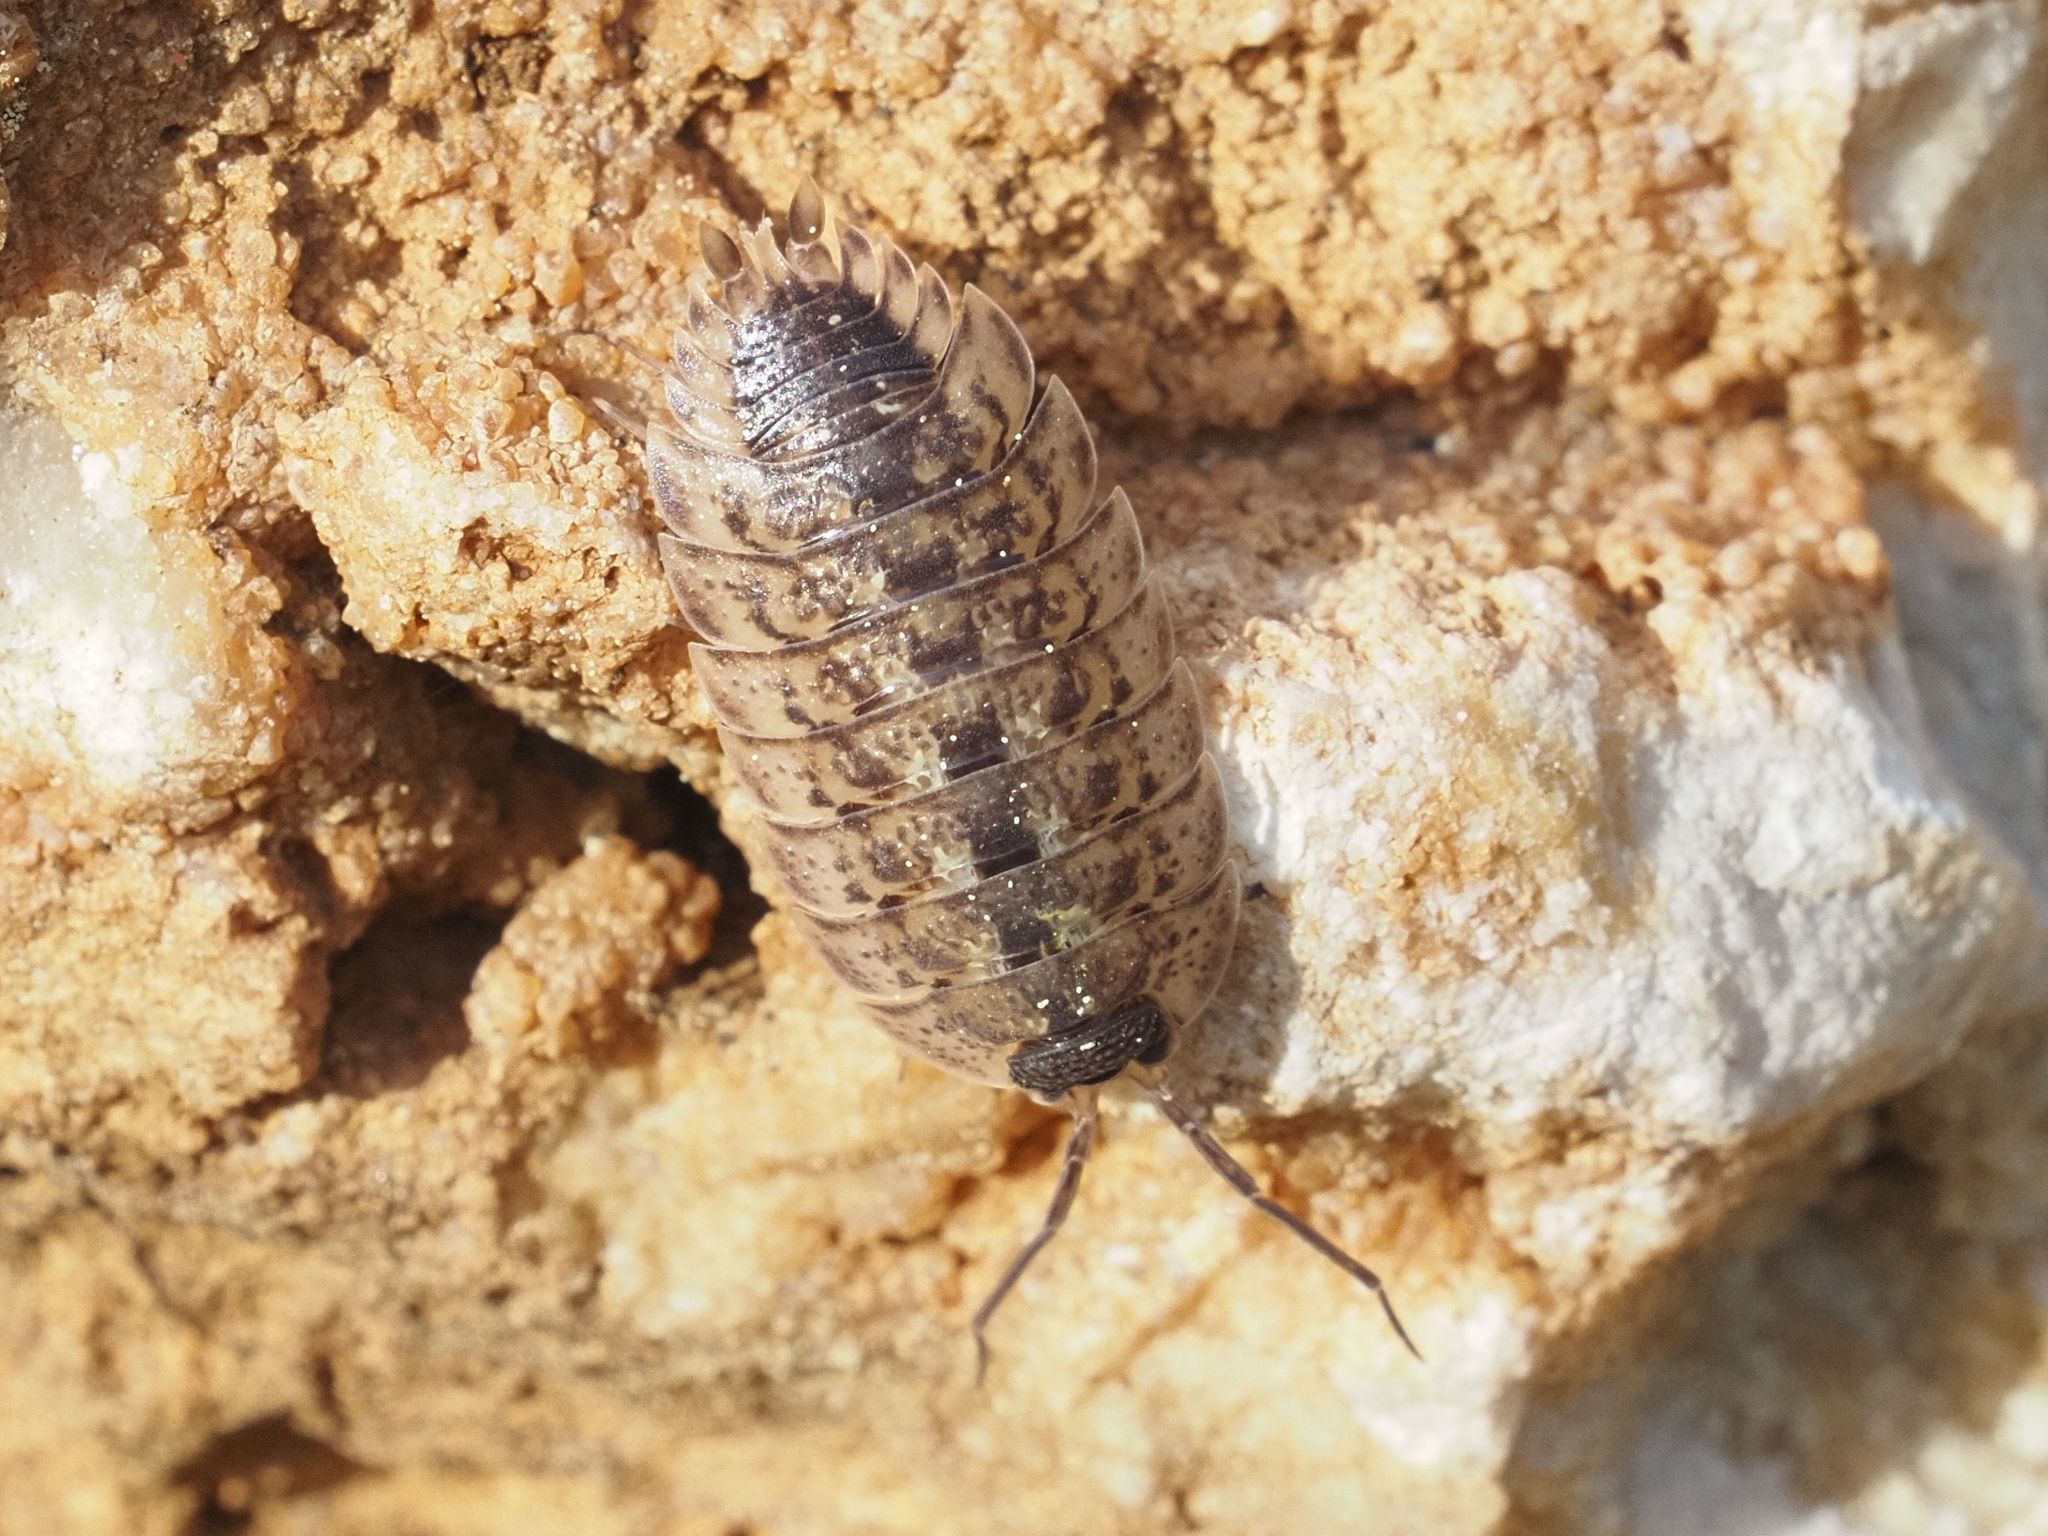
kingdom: Animalia
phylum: Arthropoda
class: Malacostraca
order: Isopoda
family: Porcellionidae
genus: Porcellio
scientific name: Porcellio spinicornis
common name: Painted woodlouse
